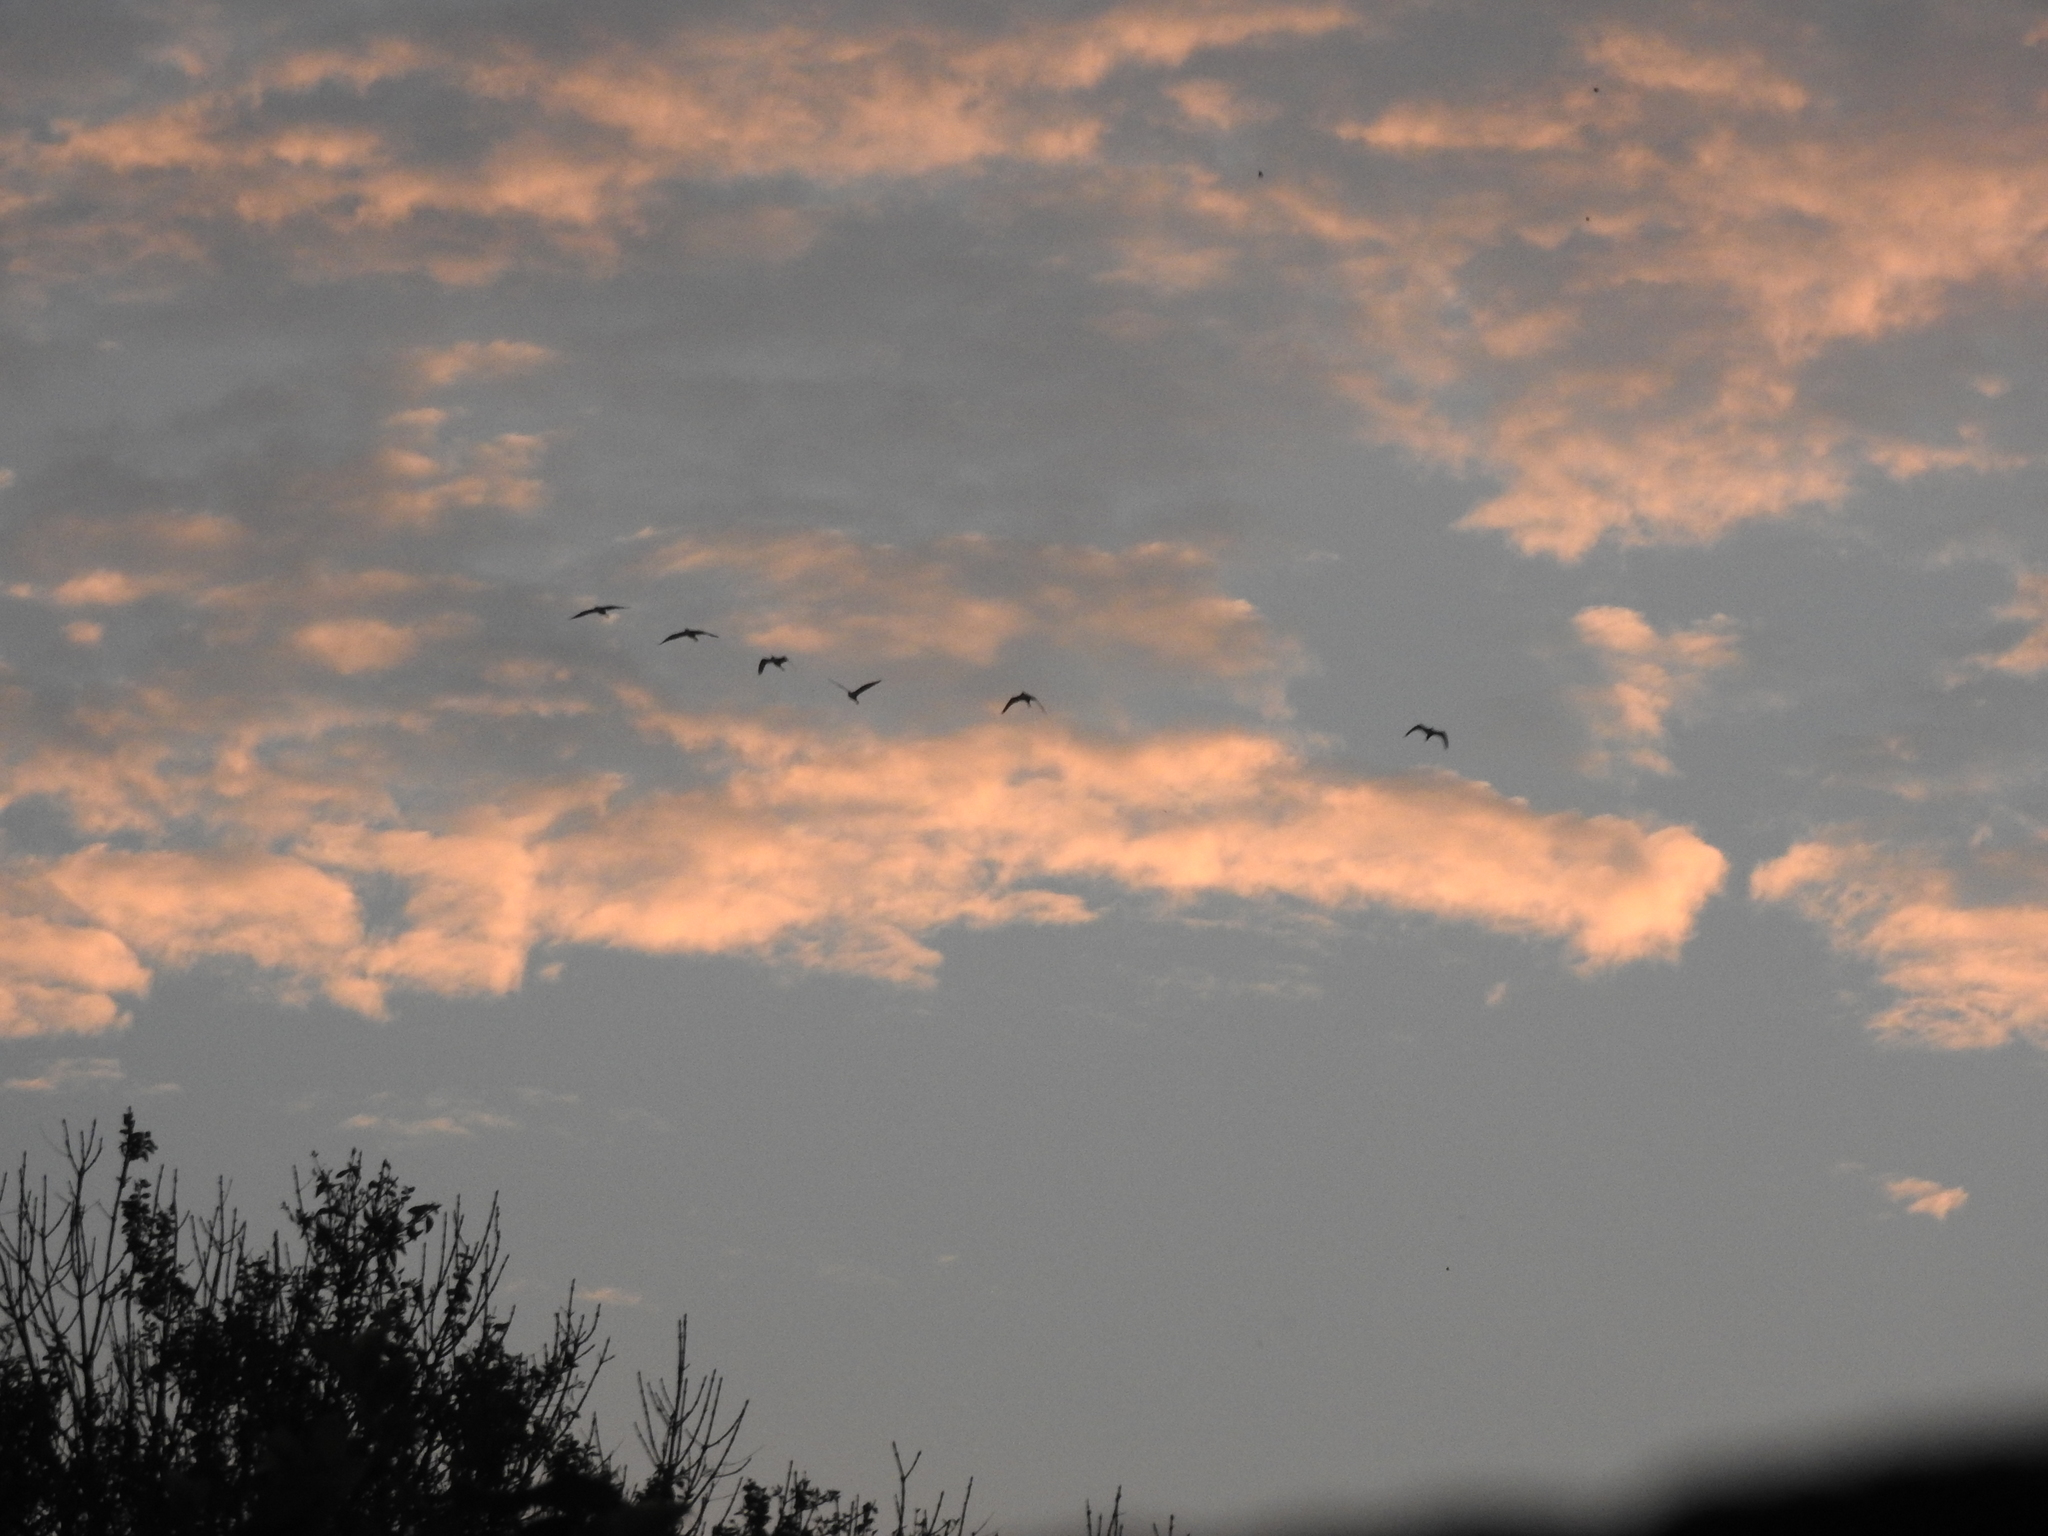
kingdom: Animalia
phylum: Chordata
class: Aves
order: Pelecaniformes
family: Ardeidae
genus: Bubulcus
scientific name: Bubulcus ibis
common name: Cattle egret
